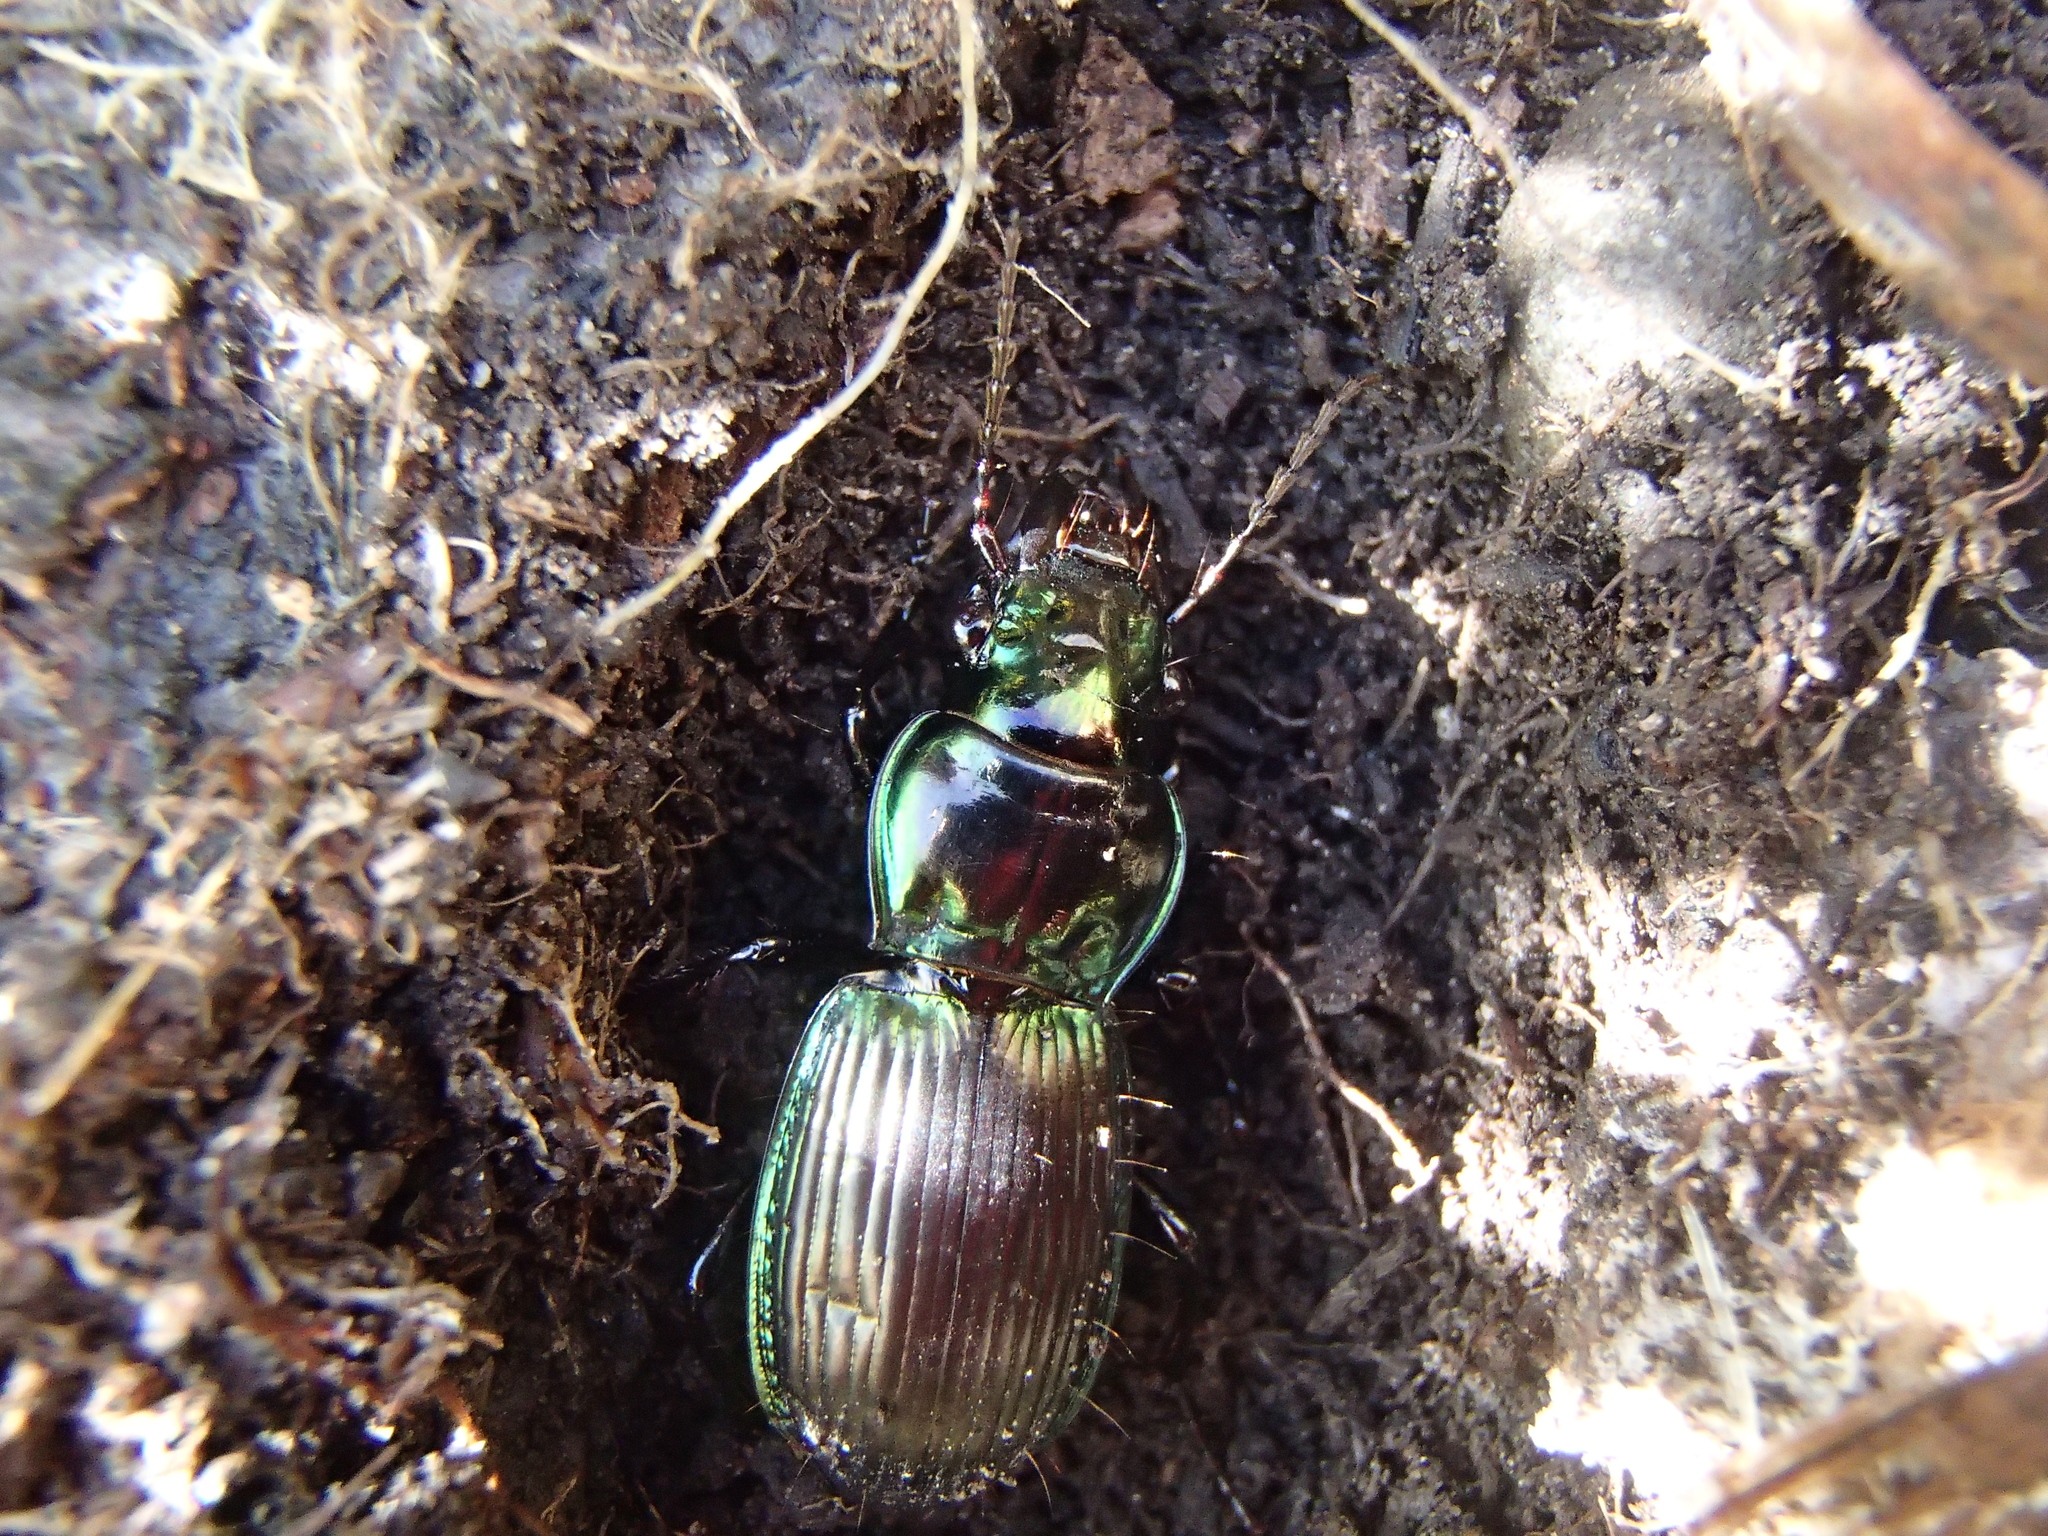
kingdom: Animalia
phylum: Arthropoda
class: Insecta
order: Coleoptera
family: Carabidae
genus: Megadromus
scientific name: Megadromus antarcticus
